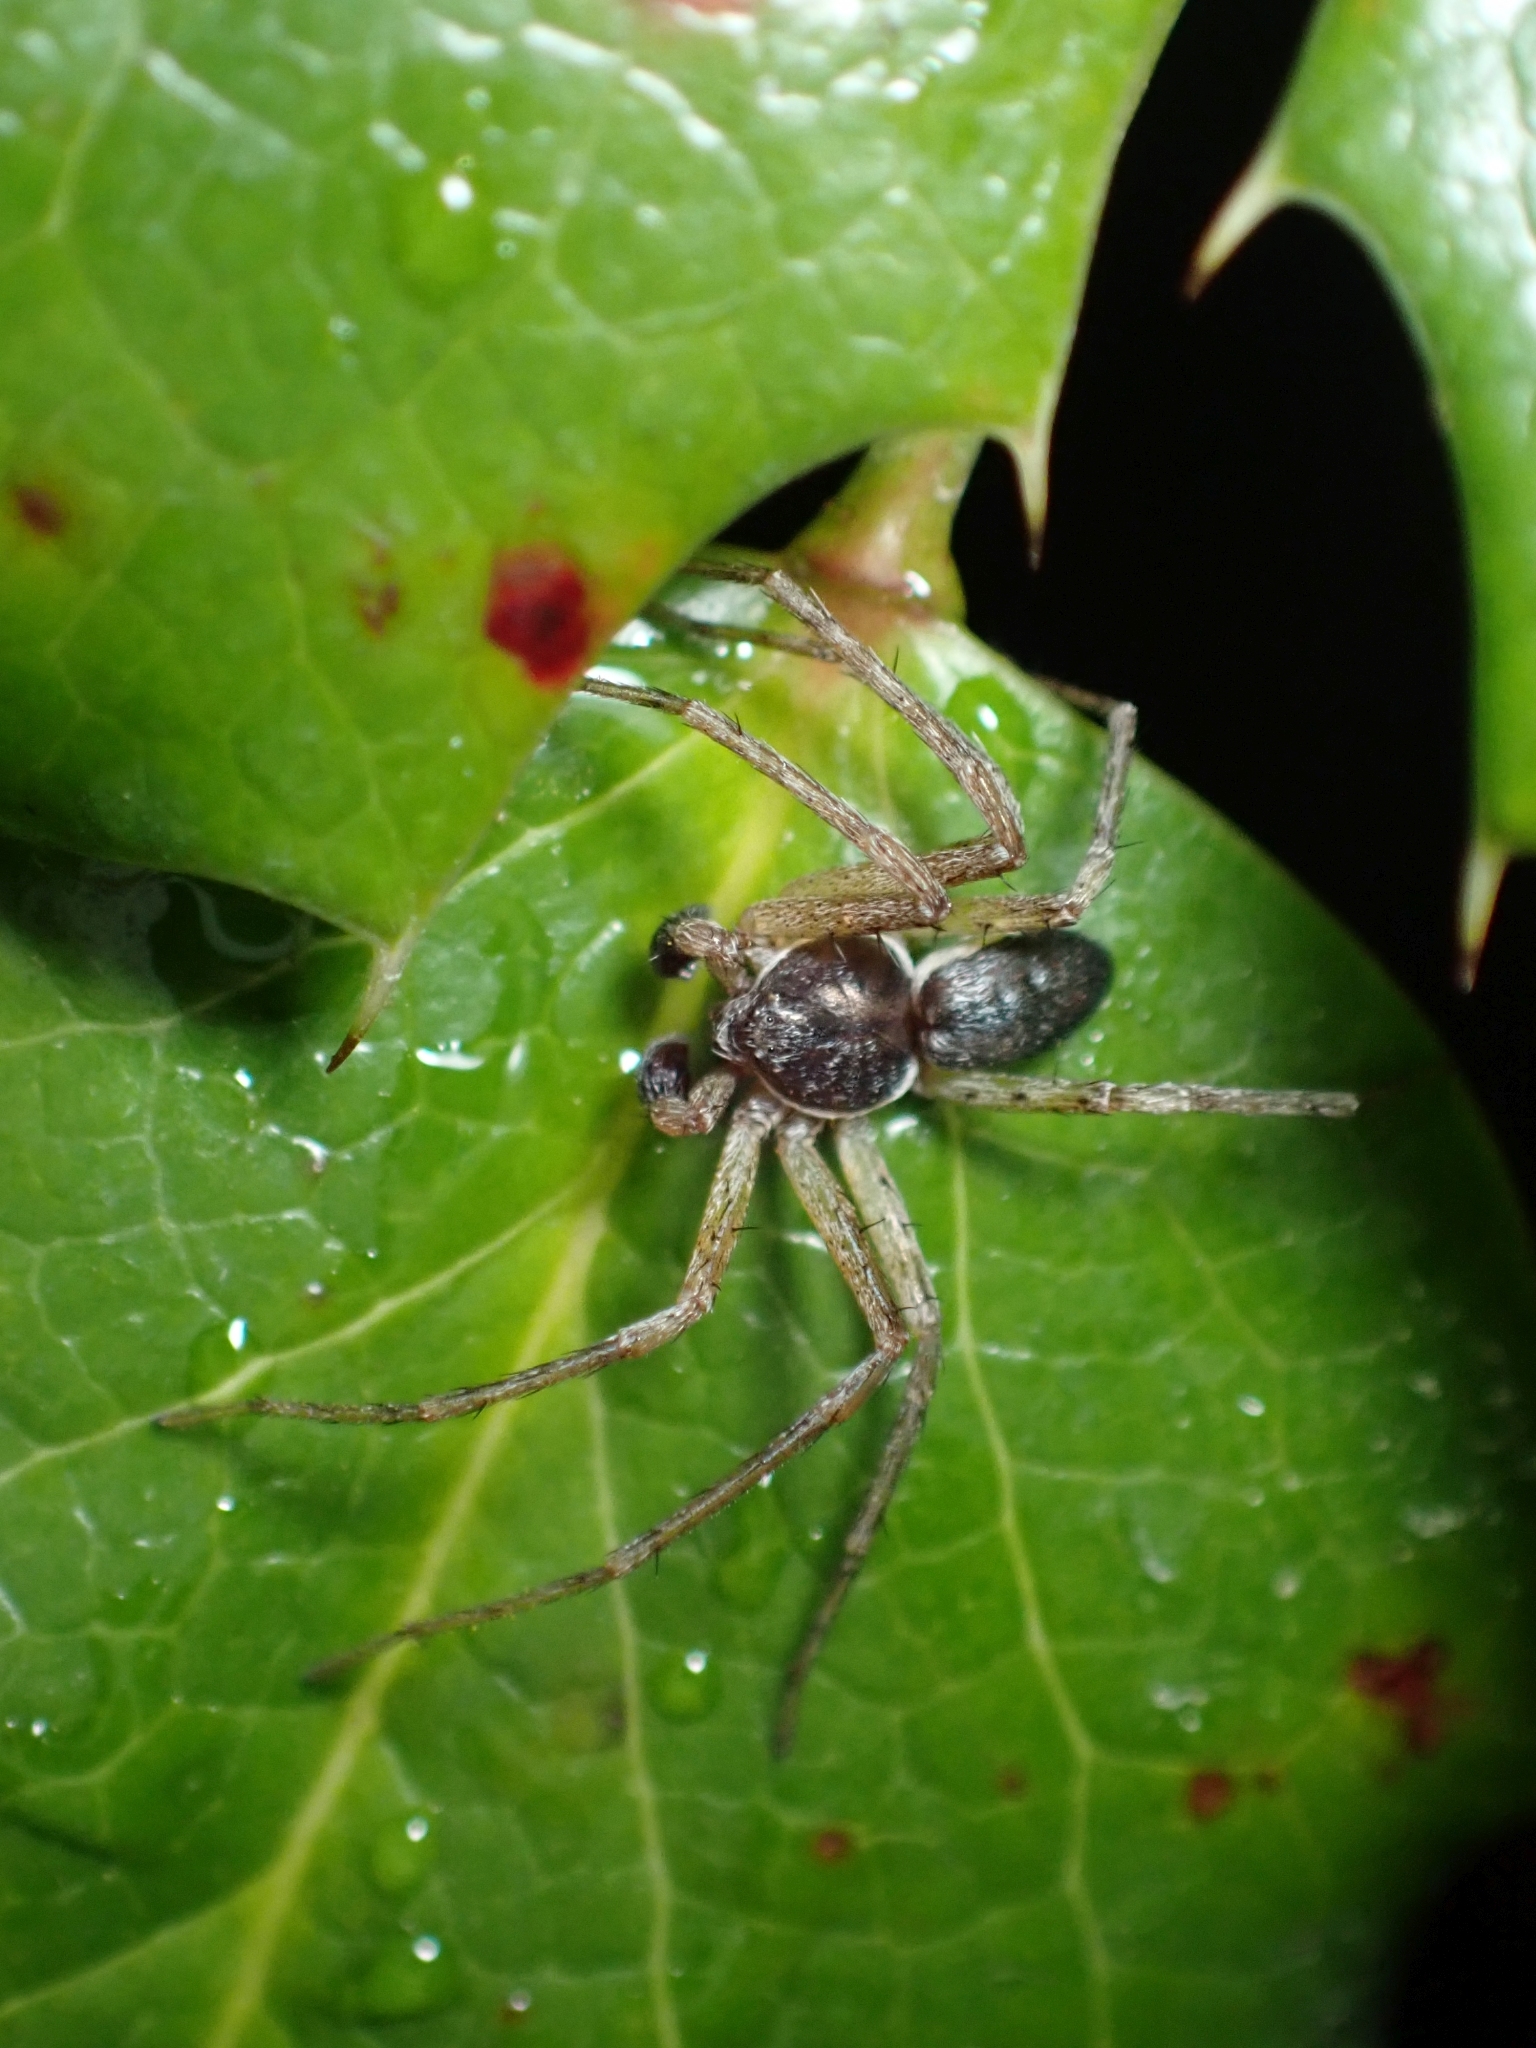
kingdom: Animalia
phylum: Arthropoda
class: Arachnida
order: Araneae
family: Philodromidae
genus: Philodromus
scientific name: Philodromus dispar
